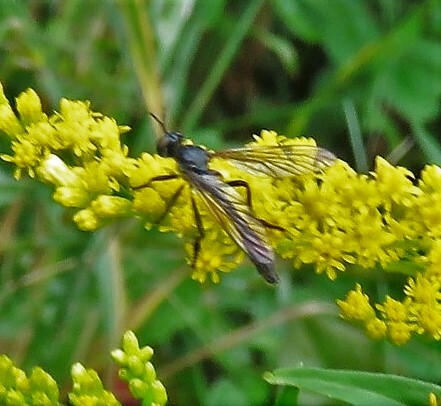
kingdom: Animalia
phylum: Arthropoda
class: Insecta
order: Diptera
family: Asilidae
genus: Dioctria
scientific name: Dioctria hyalipennis
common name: Stripe-legged robberfly
